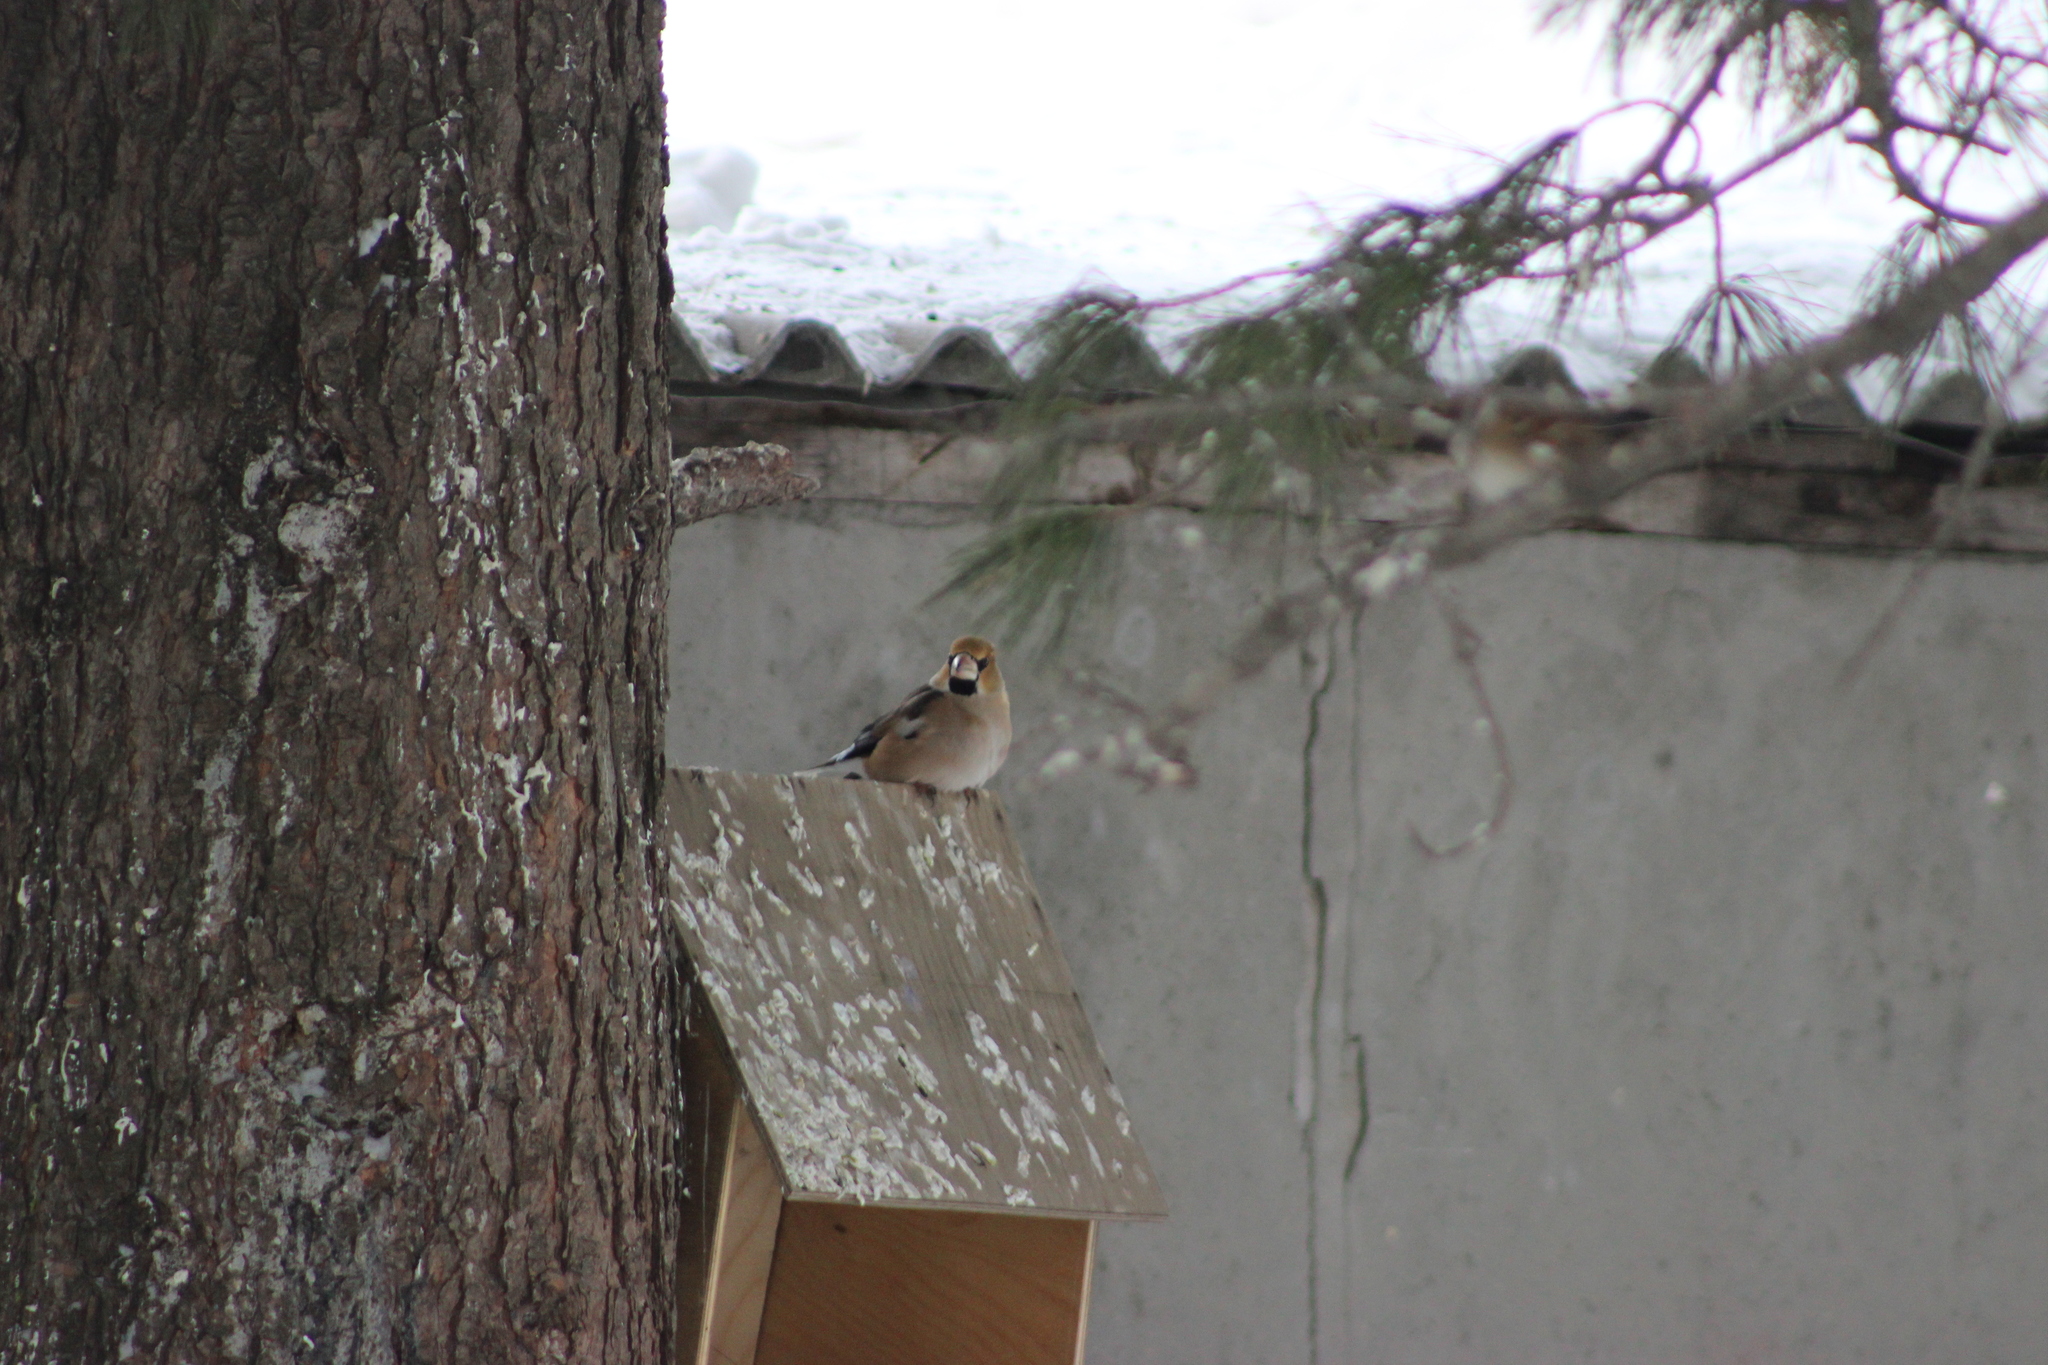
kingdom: Animalia
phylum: Chordata
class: Aves
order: Passeriformes
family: Fringillidae
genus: Coccothraustes
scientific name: Coccothraustes coccothraustes
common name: Hawfinch
